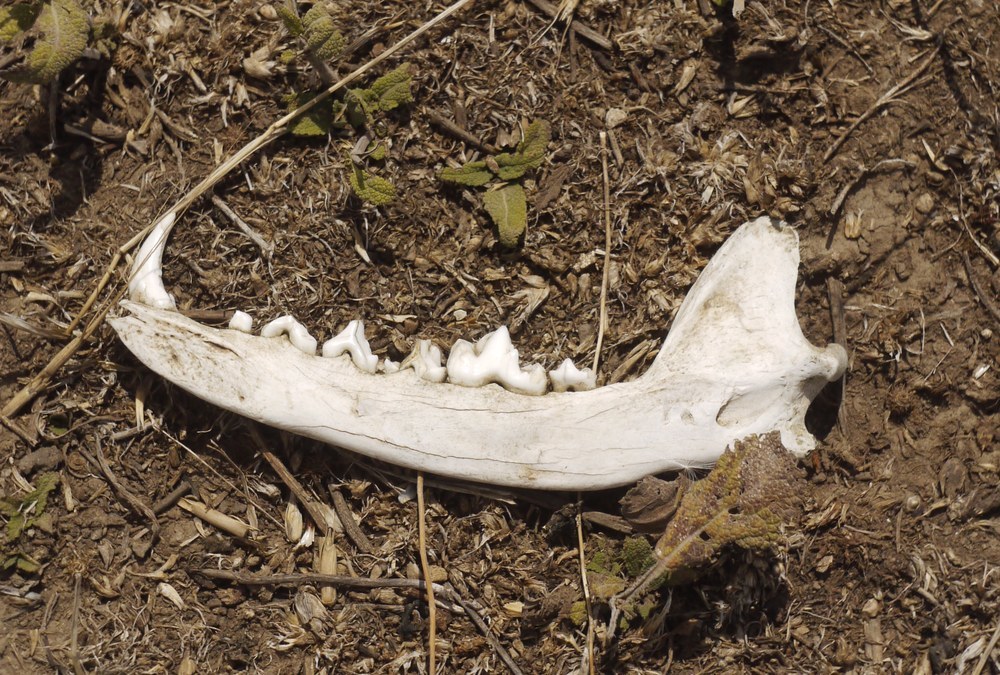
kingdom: Animalia
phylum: Chordata
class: Mammalia
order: Carnivora
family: Canidae
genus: Vulpes
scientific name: Vulpes vulpes
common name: Red fox
